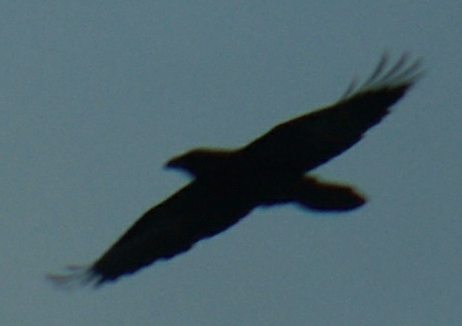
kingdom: Animalia
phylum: Chordata
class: Aves
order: Passeriformes
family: Corvidae
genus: Corvus
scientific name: Corvus corax
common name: Common raven
